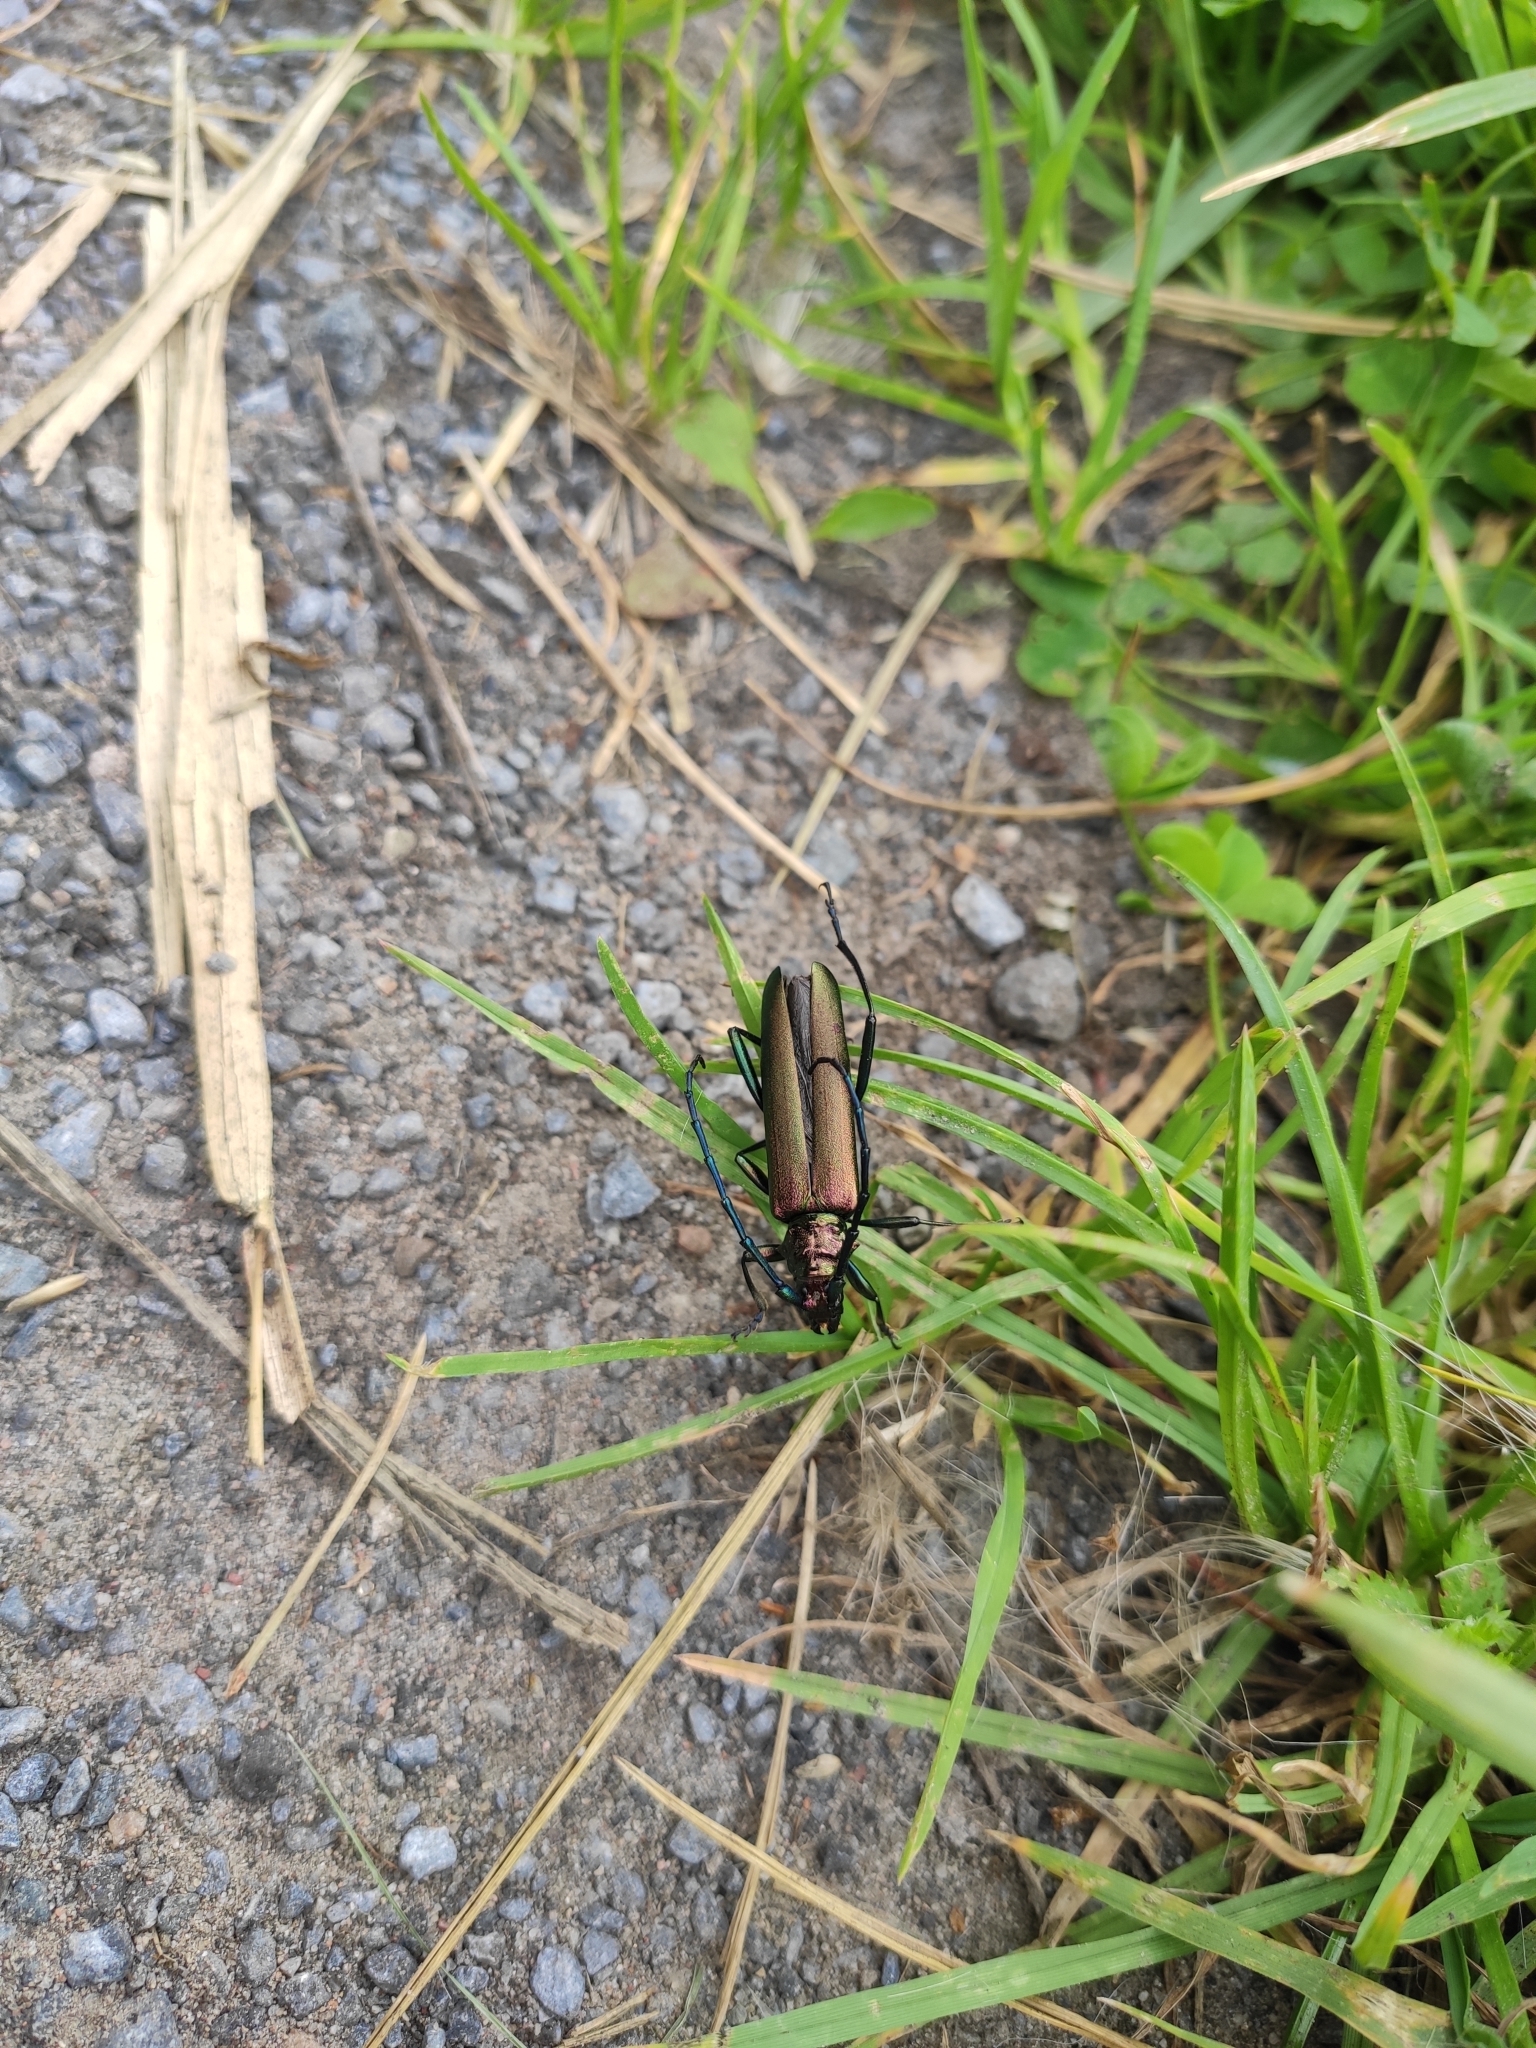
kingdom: Animalia
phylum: Arthropoda
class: Insecta
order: Coleoptera
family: Cerambycidae
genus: Aromia
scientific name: Aromia moschata
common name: Musk beetle
